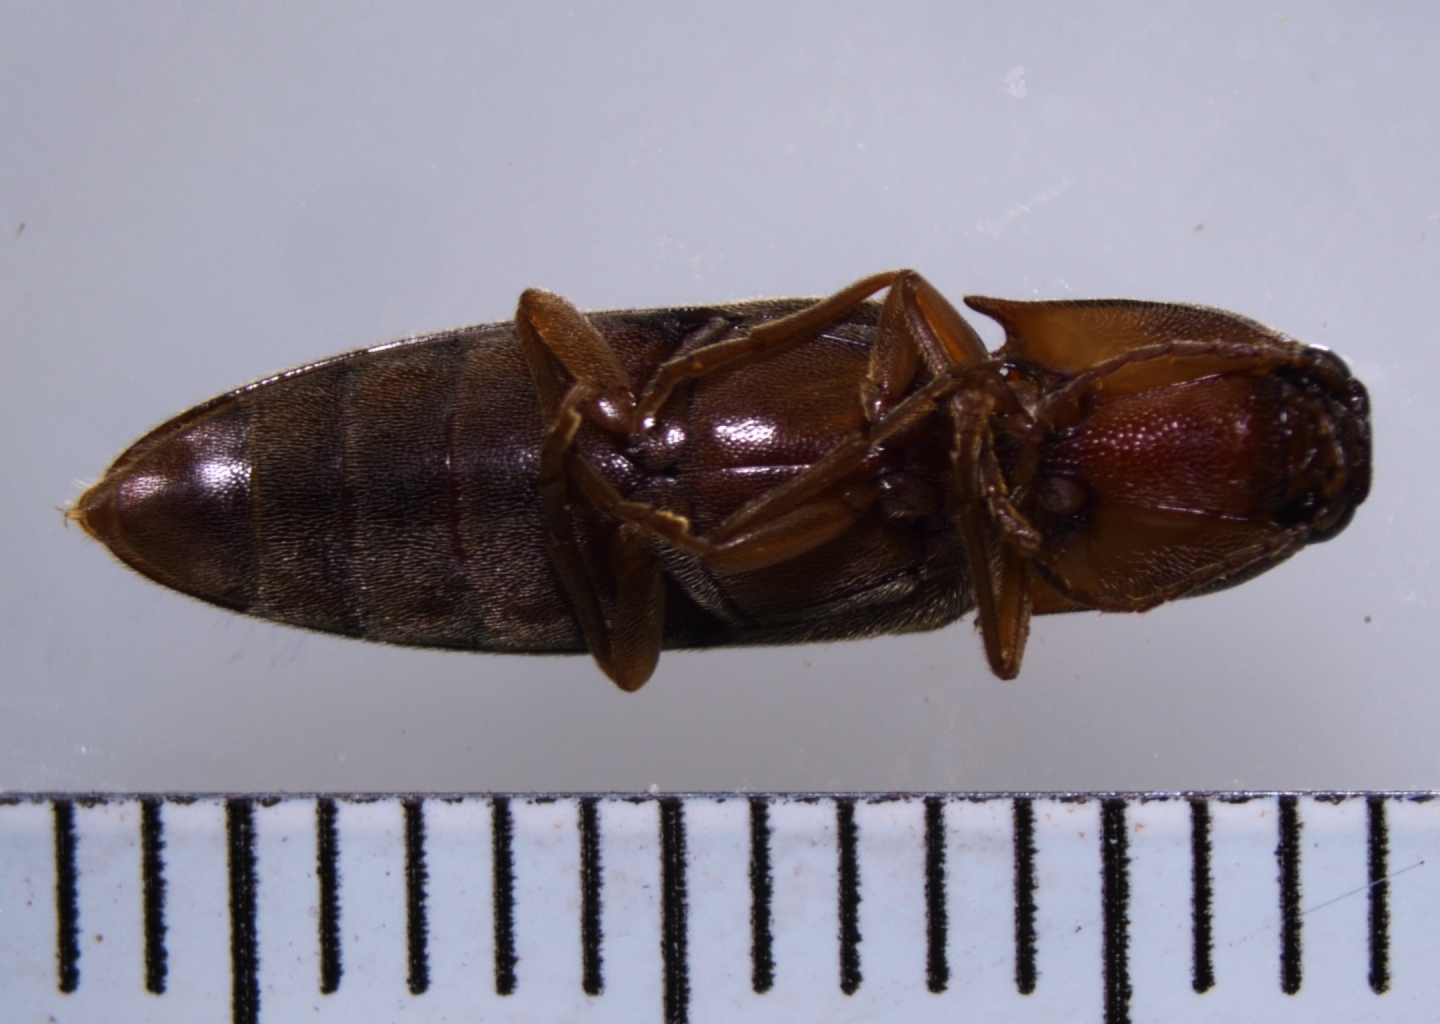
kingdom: Animalia
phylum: Arthropoda
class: Insecta
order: Coleoptera
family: Elateridae
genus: Simodactylus
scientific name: Simodactylus cinnamomeus
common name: Click beetle
